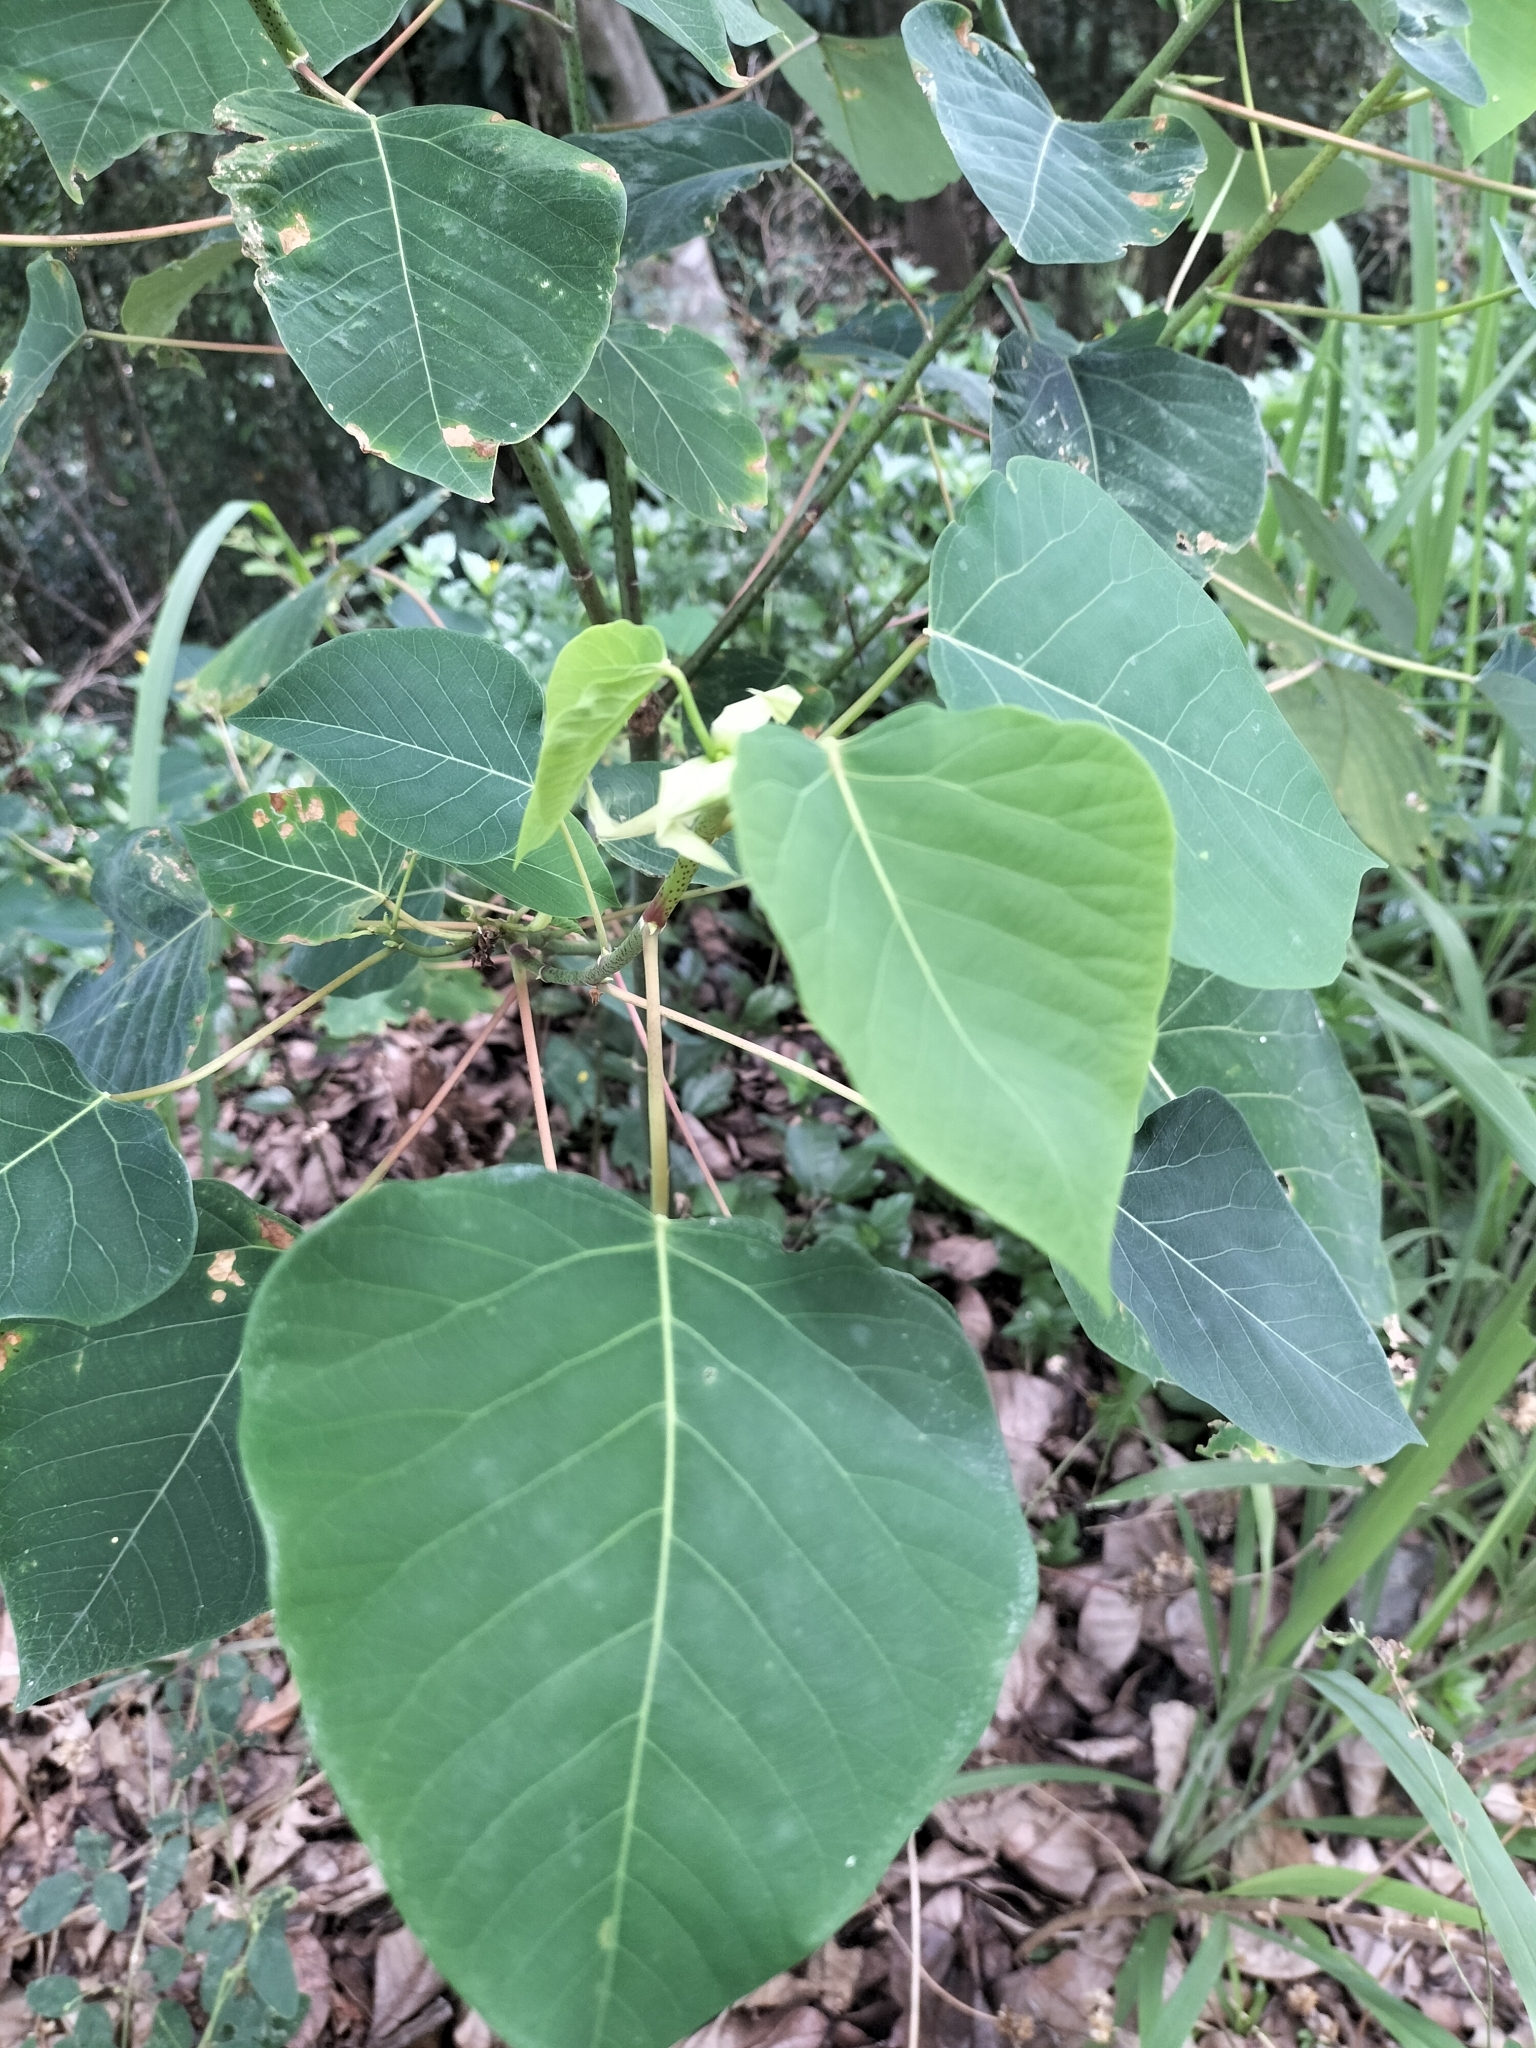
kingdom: Plantae
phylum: Tracheophyta
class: Magnoliopsida
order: Malpighiales
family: Euphorbiaceae
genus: Homalanthus
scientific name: Homalanthus populifolius
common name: Queensland poplar
